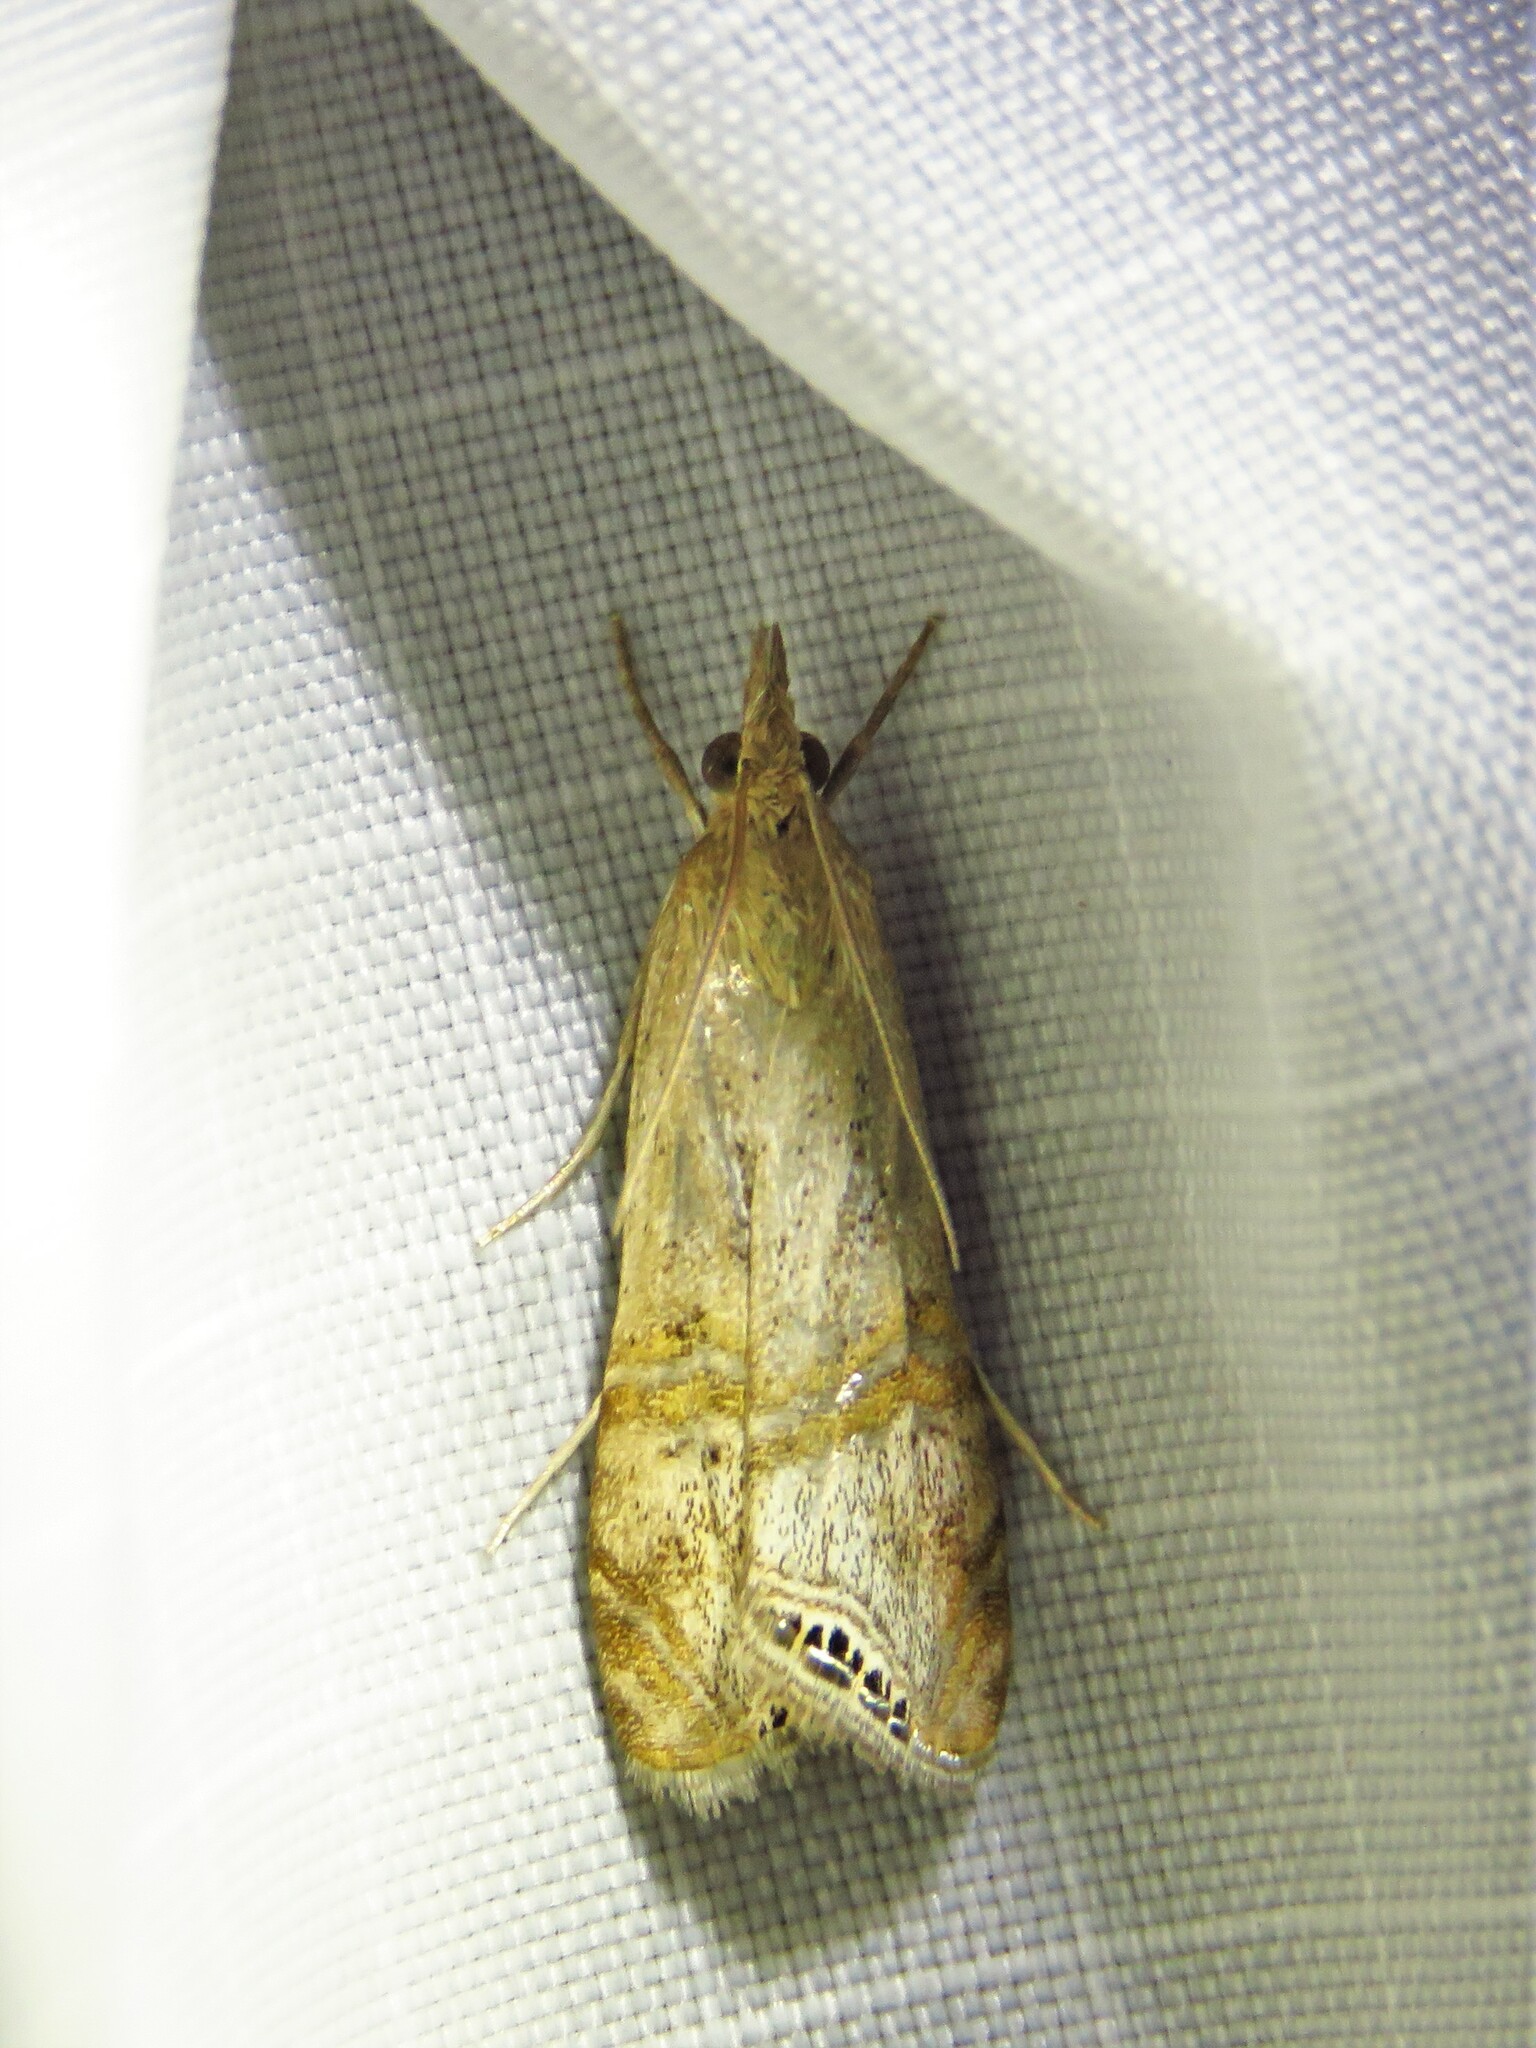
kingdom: Animalia
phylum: Arthropoda
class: Insecta
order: Lepidoptera
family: Crambidae
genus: Euchromius
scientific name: Euchromius ocellea
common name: Necklace veneer moth
